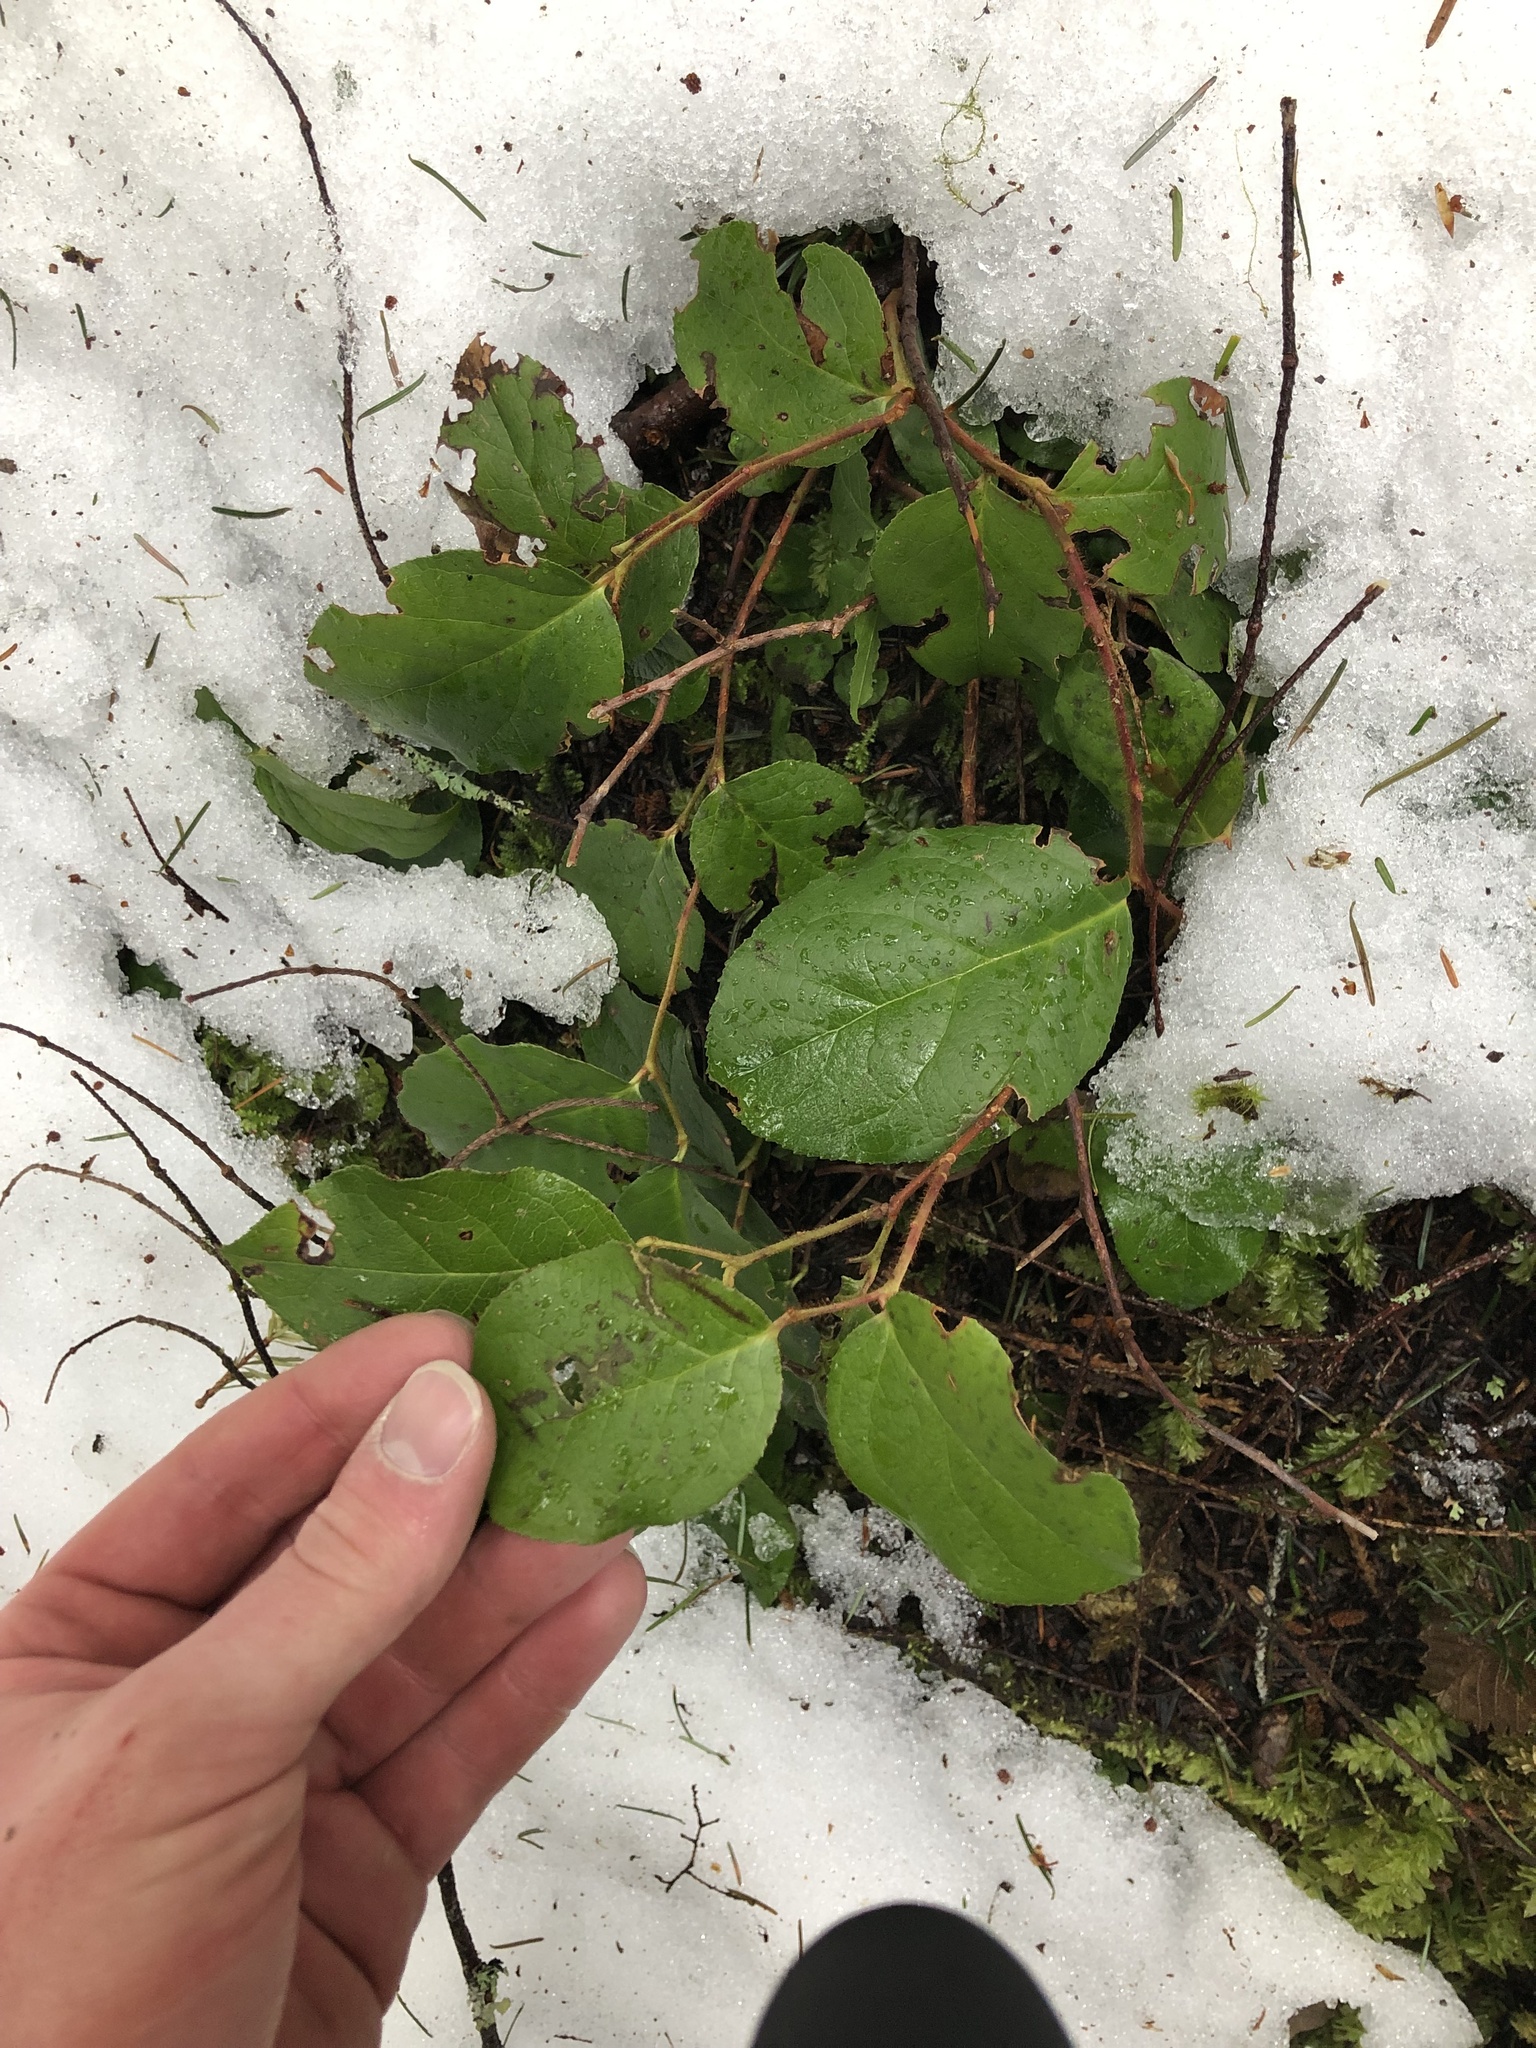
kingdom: Plantae
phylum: Tracheophyta
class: Magnoliopsida
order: Ericales
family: Ericaceae
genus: Gaultheria
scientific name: Gaultheria shallon
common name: Shallon
